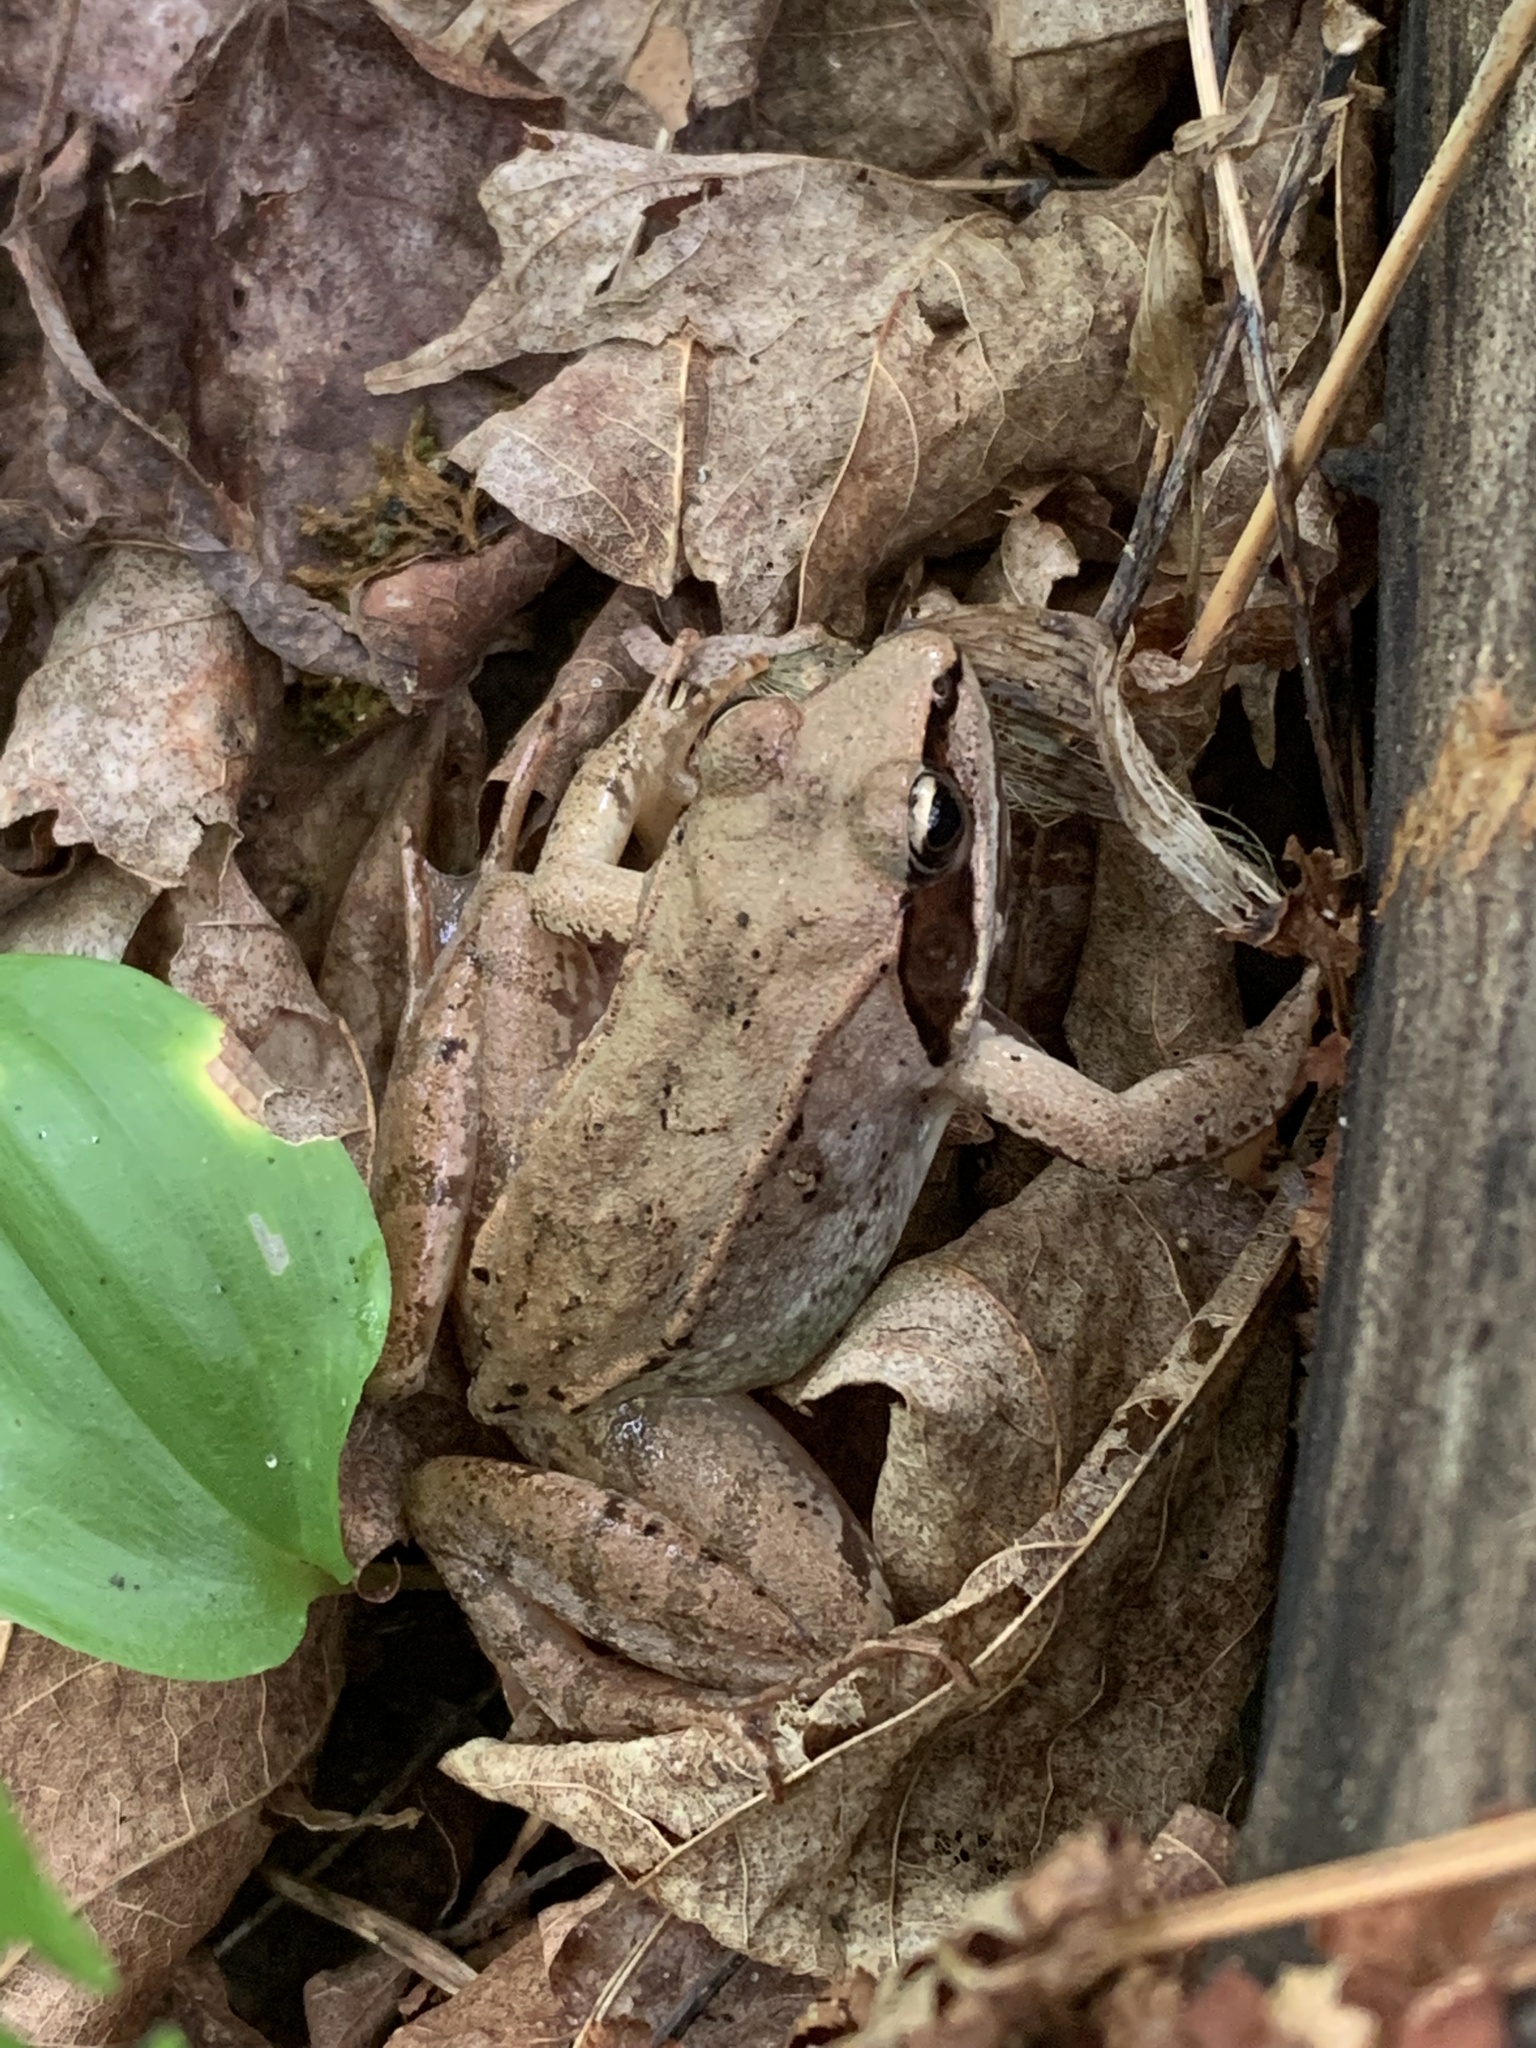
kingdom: Animalia
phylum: Chordata
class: Amphibia
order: Anura
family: Ranidae
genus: Lithobates
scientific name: Lithobates sylvaticus
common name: Wood frog
